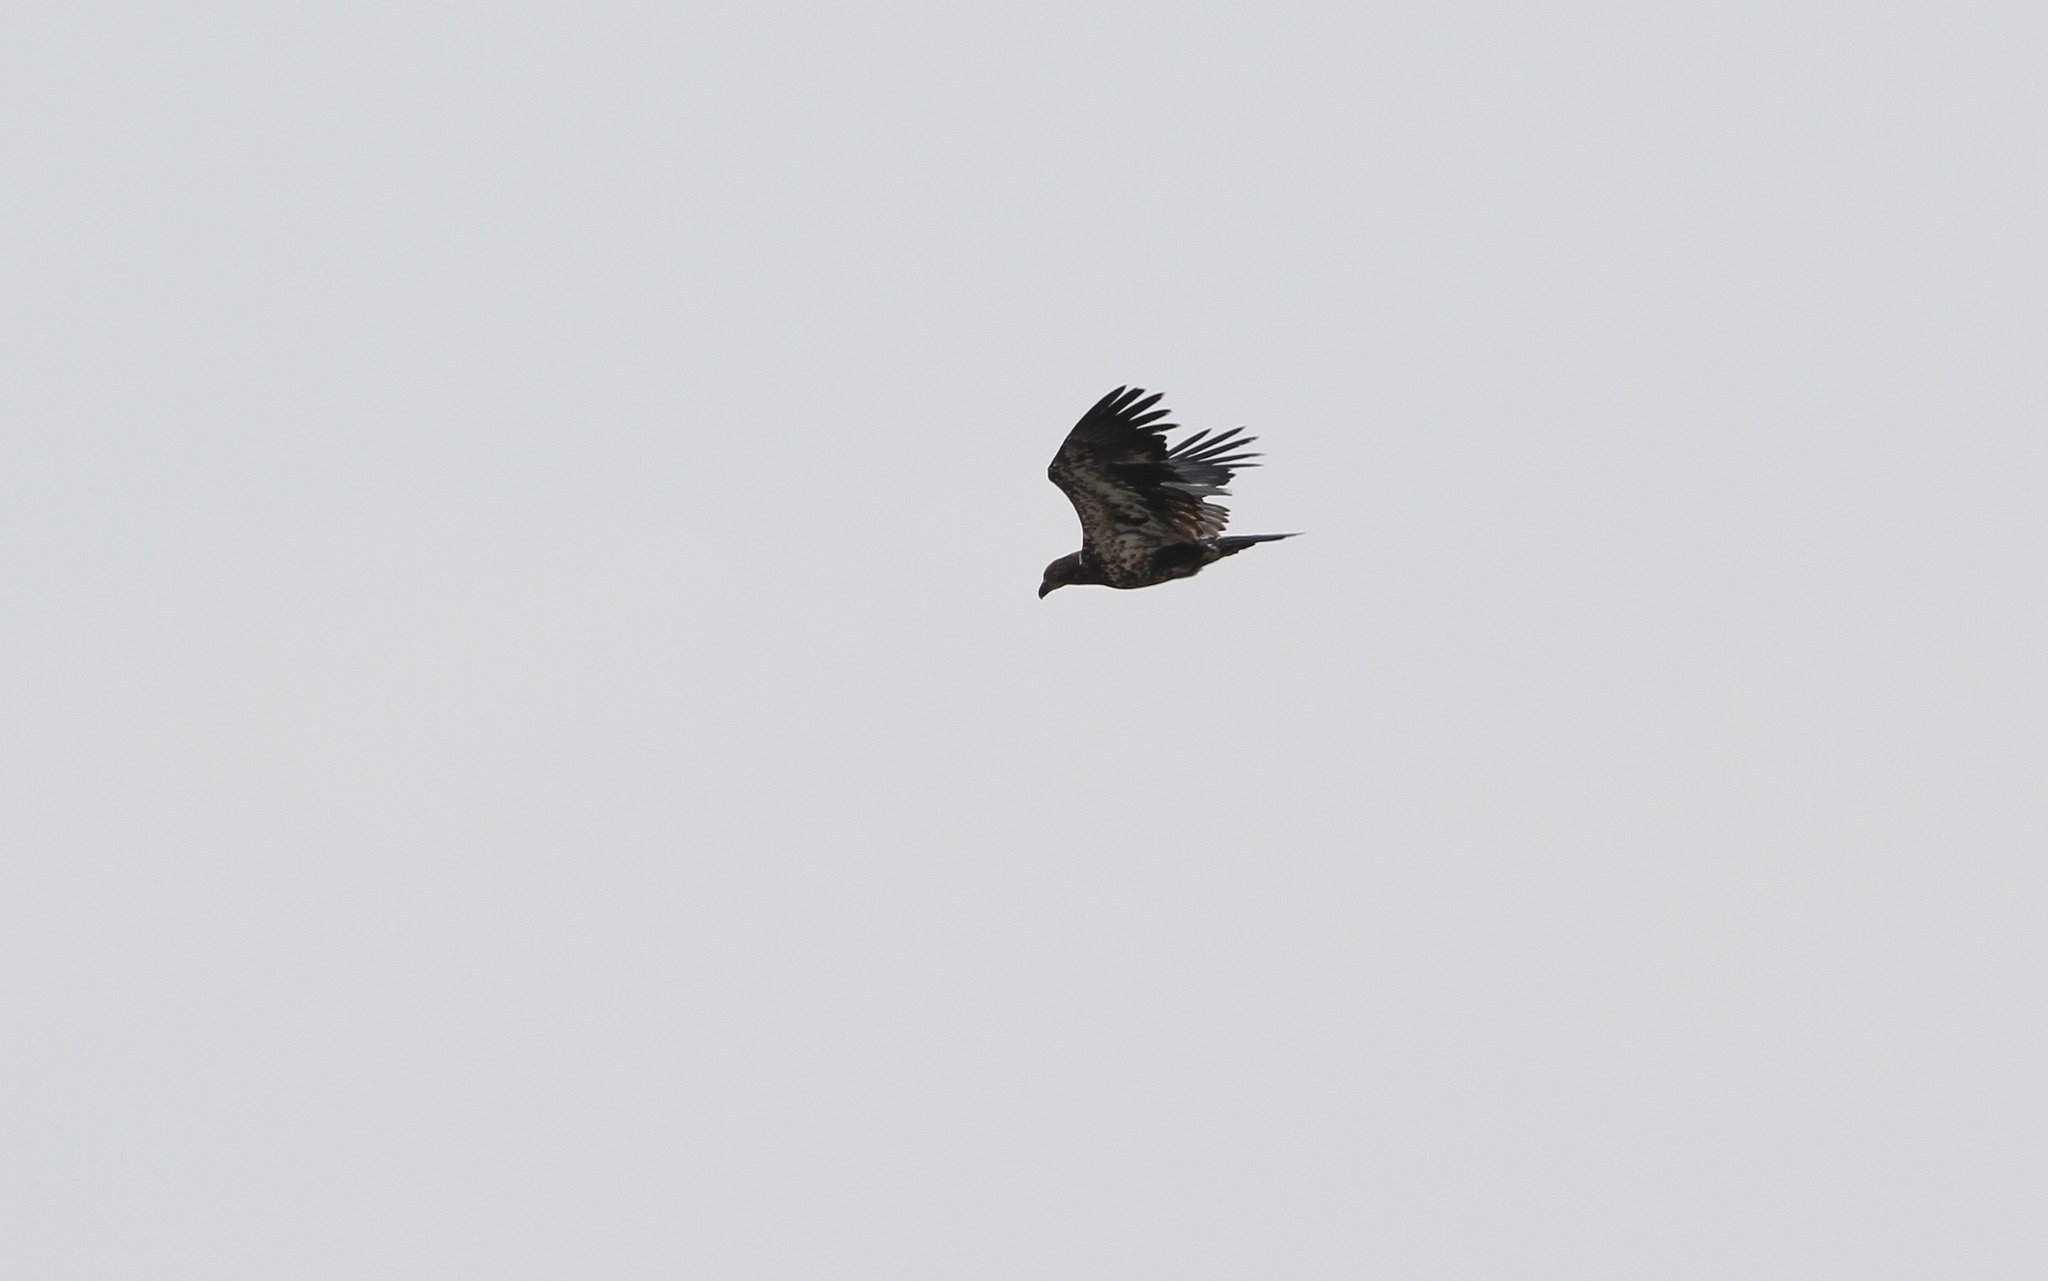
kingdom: Animalia
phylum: Chordata
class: Aves
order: Accipitriformes
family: Accipitridae
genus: Haliaeetus
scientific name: Haliaeetus leucocephalus
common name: Bald eagle
